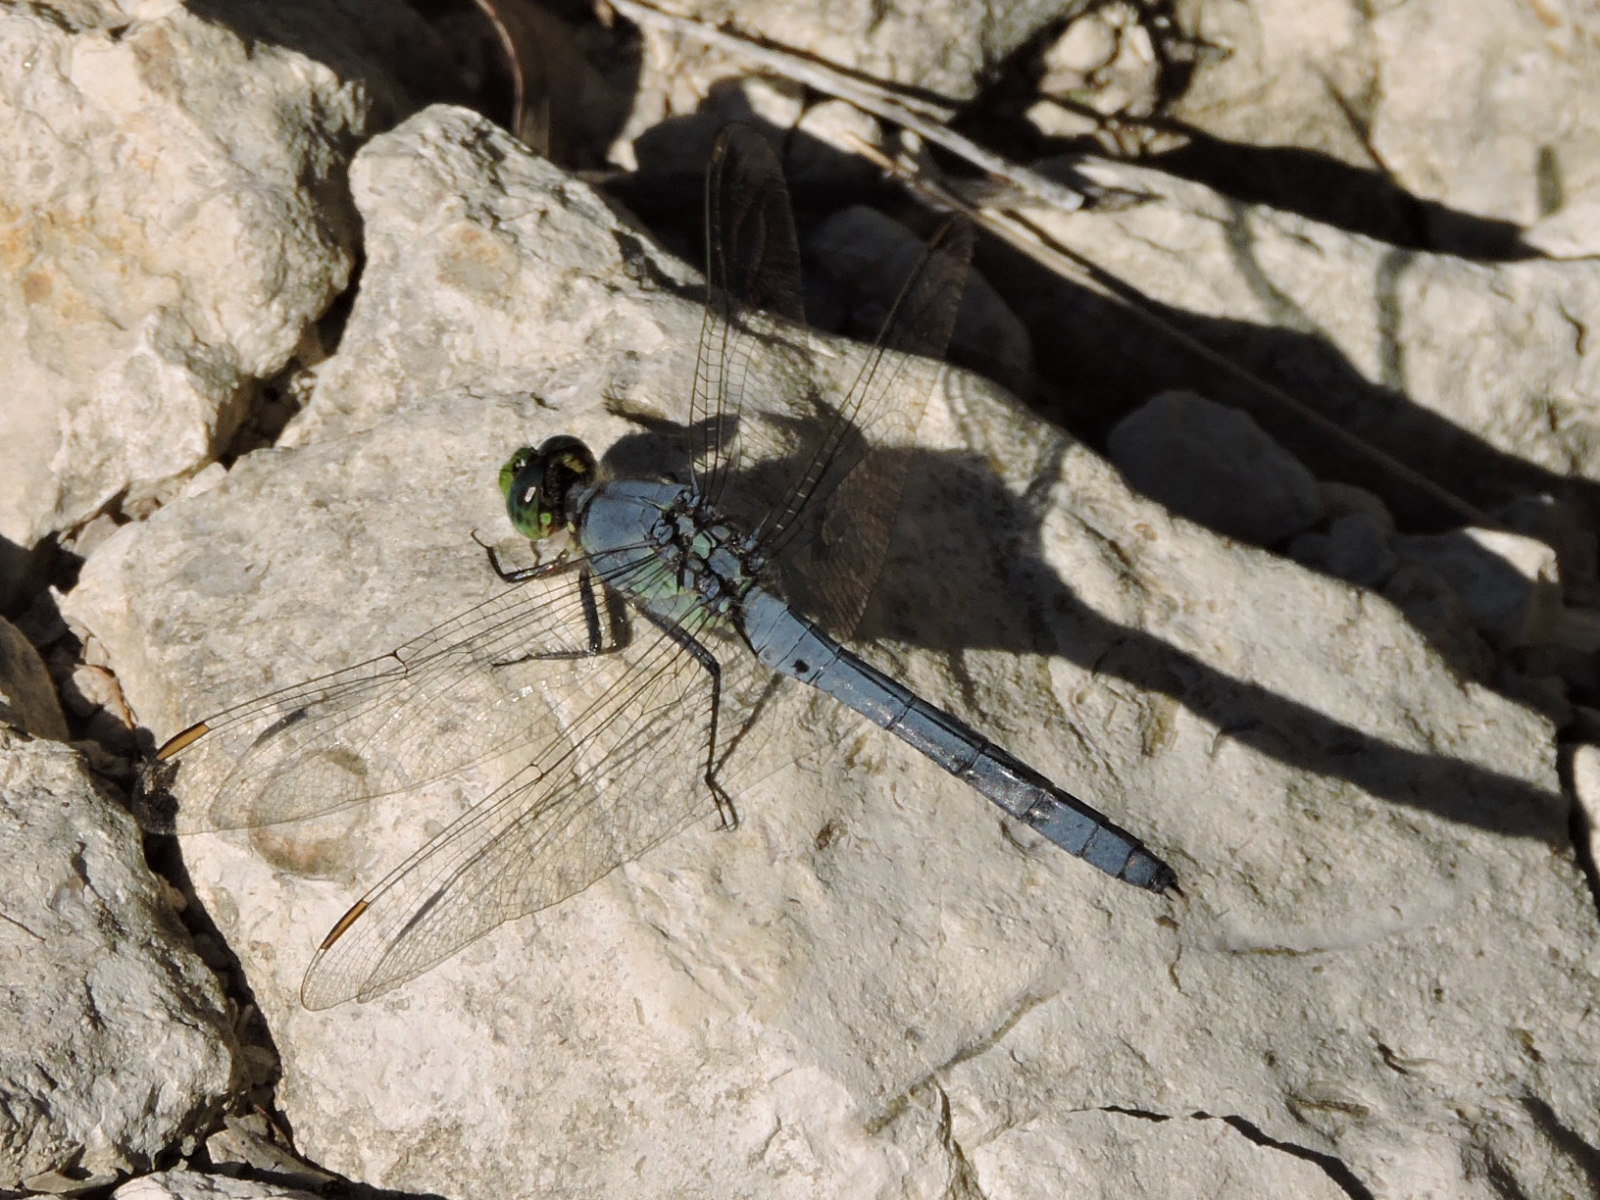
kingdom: Animalia
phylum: Arthropoda
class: Insecta
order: Odonata
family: Libellulidae
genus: Erythemis
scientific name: Erythemis simplicicollis
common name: Eastern pondhawk
